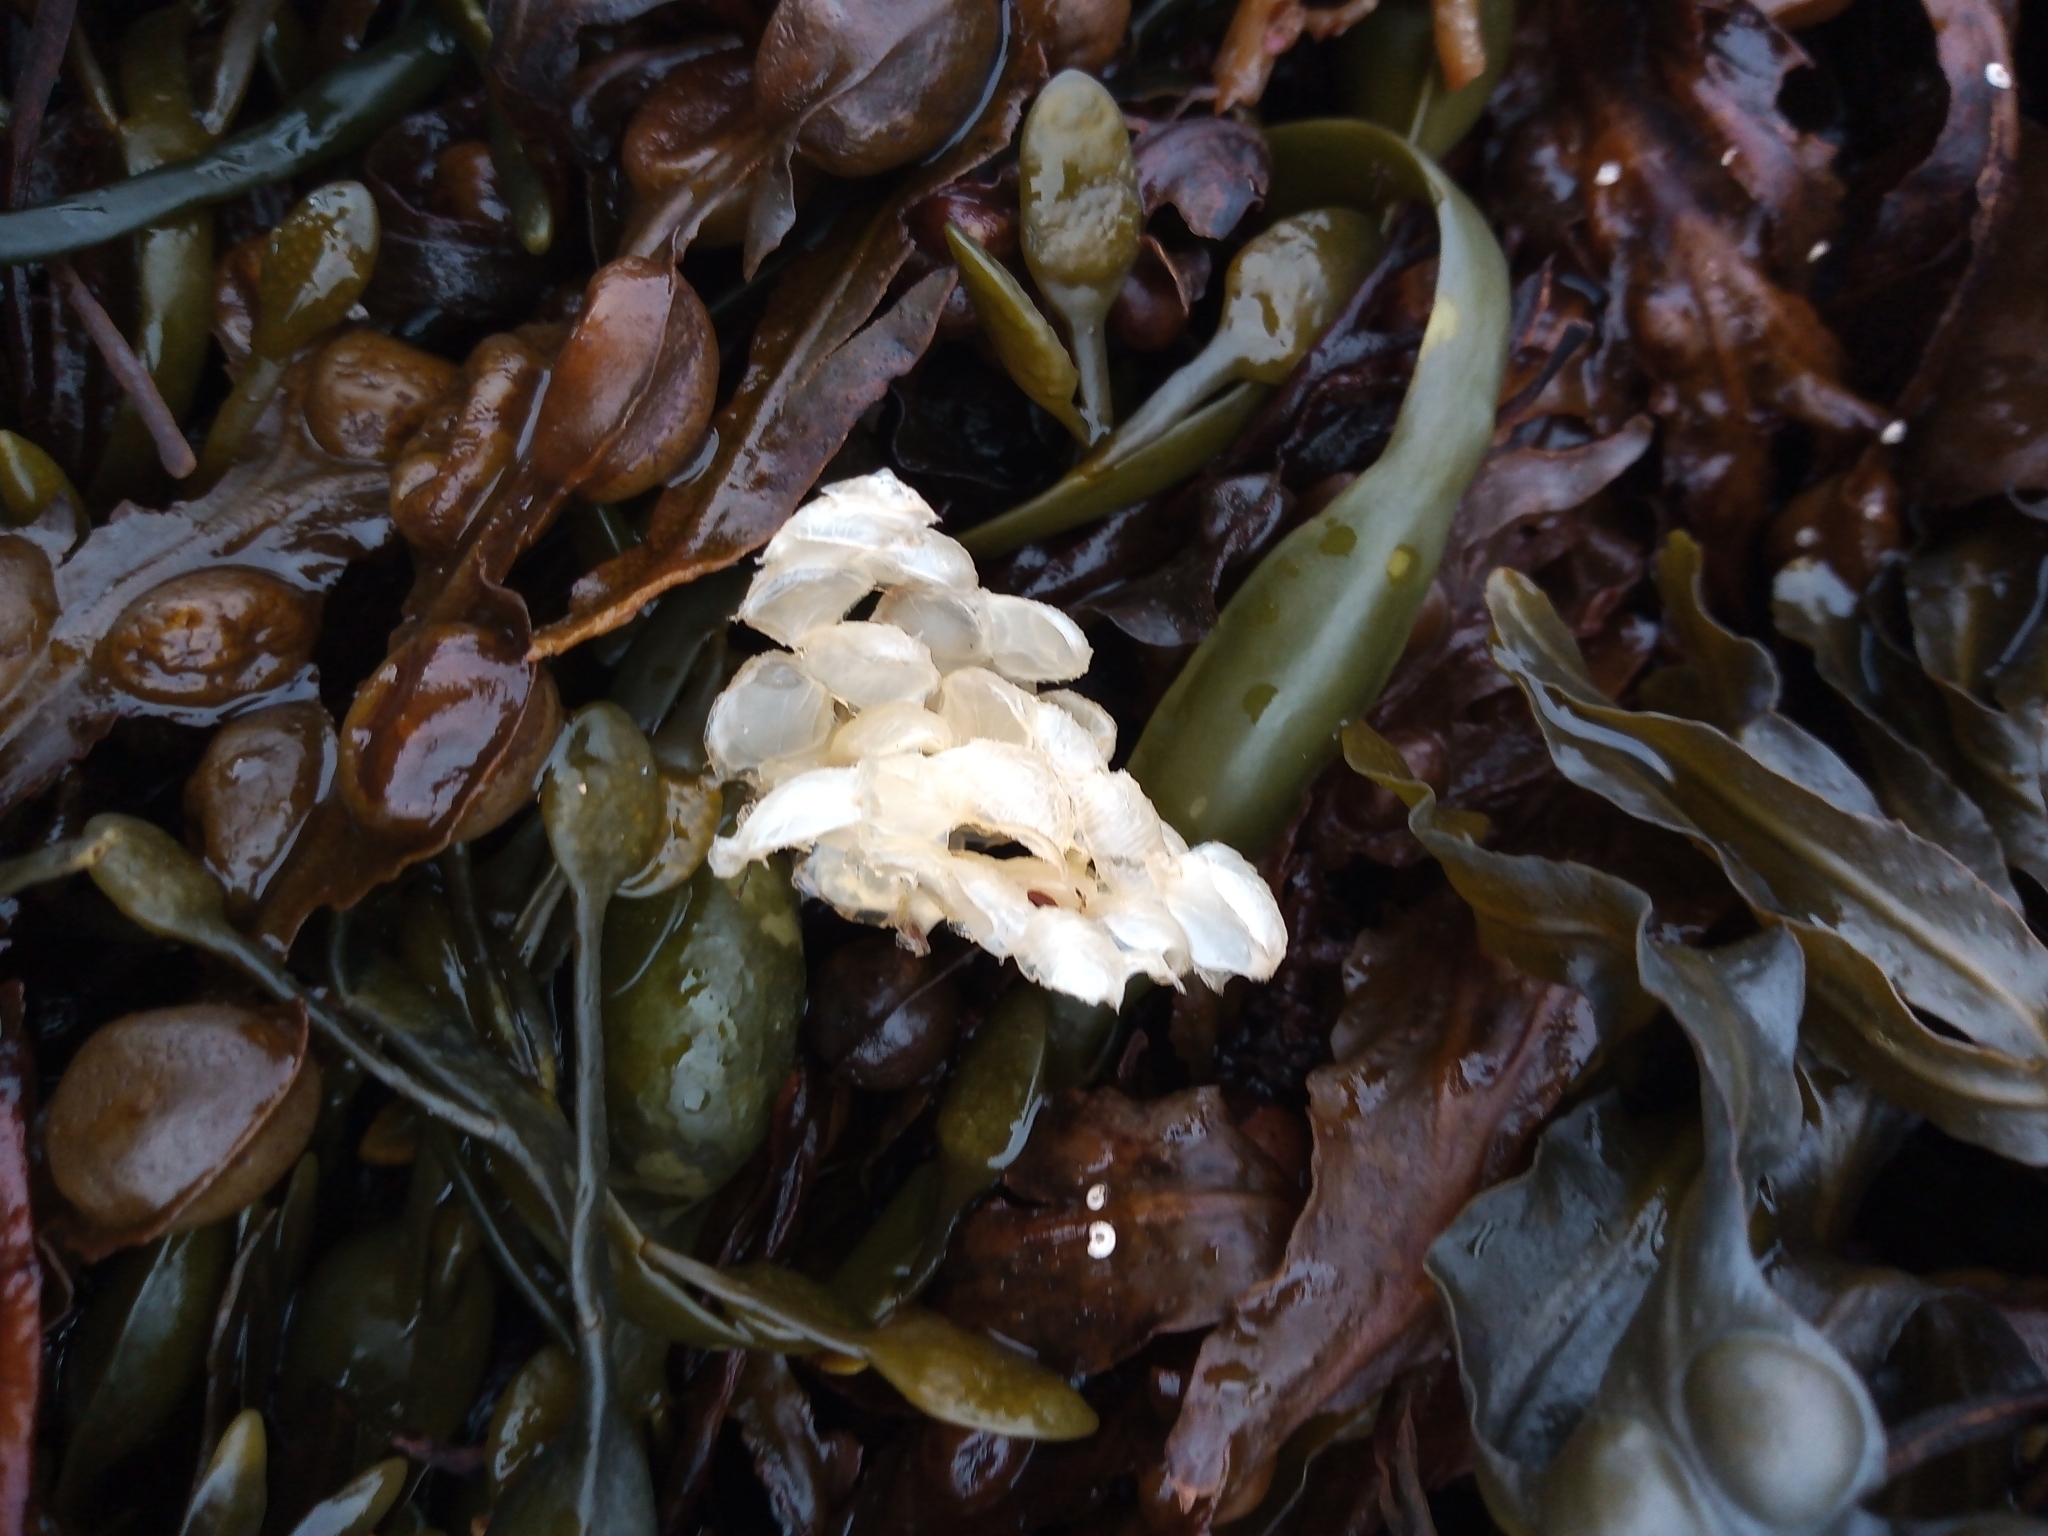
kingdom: Animalia
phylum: Mollusca
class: Gastropoda
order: Neogastropoda
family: Buccinidae
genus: Buccinum
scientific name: Buccinum undatum
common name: Common whelk
